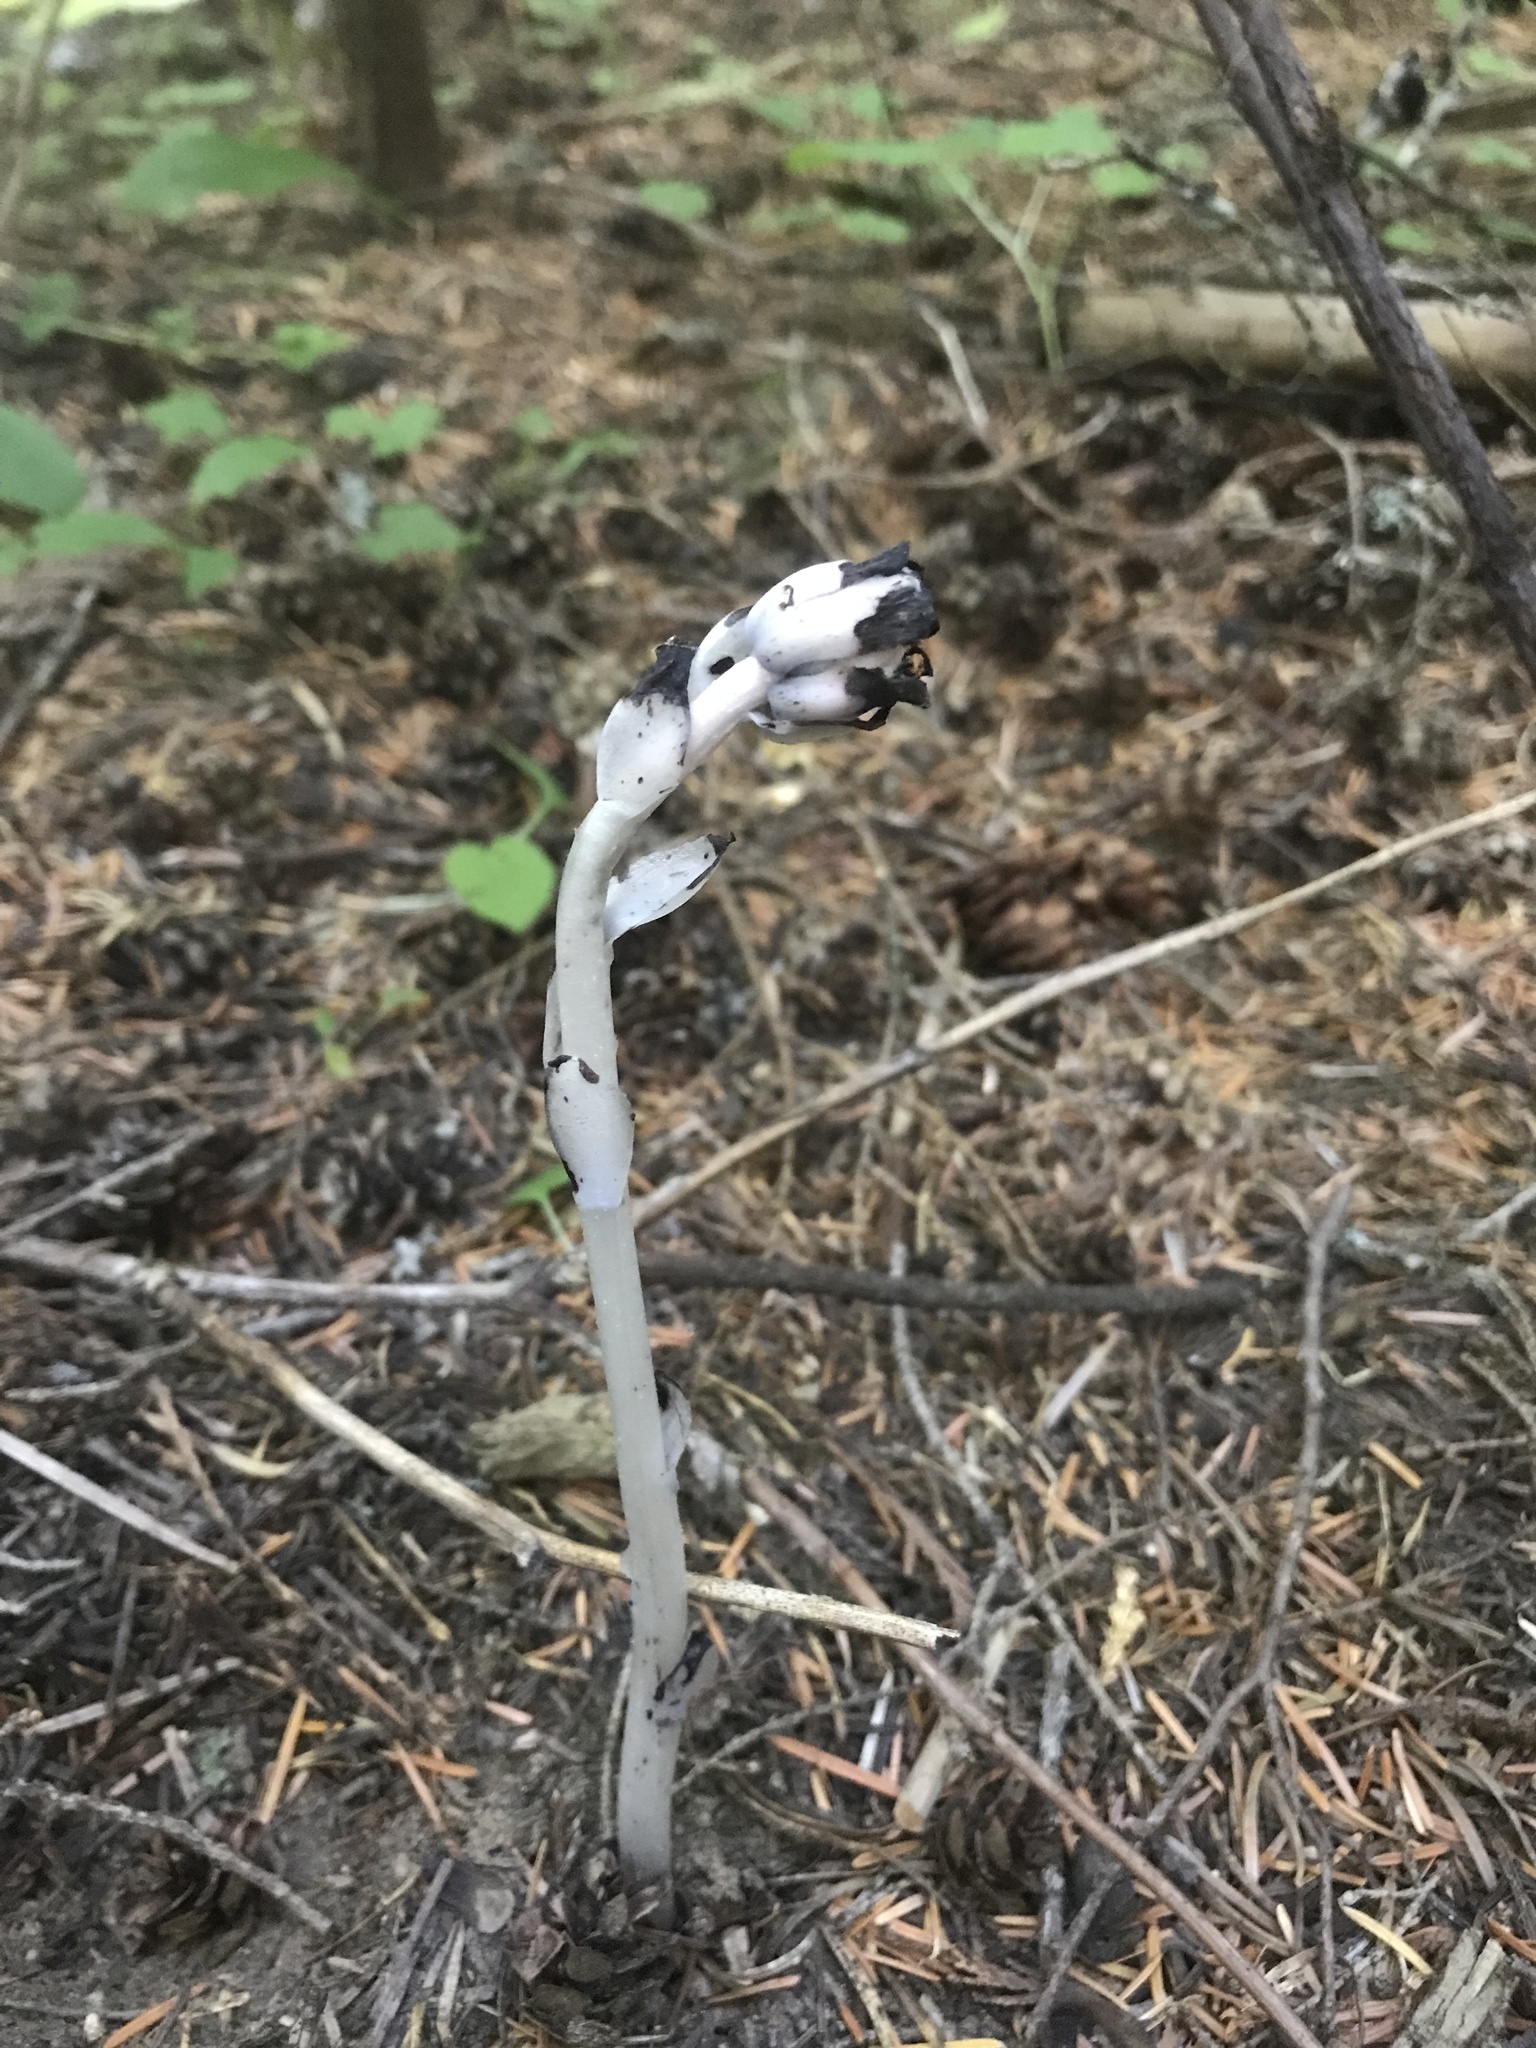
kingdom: Plantae
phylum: Tracheophyta
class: Magnoliopsida
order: Ericales
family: Ericaceae
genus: Monotropa
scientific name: Monotropa uniflora
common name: Convulsion root
